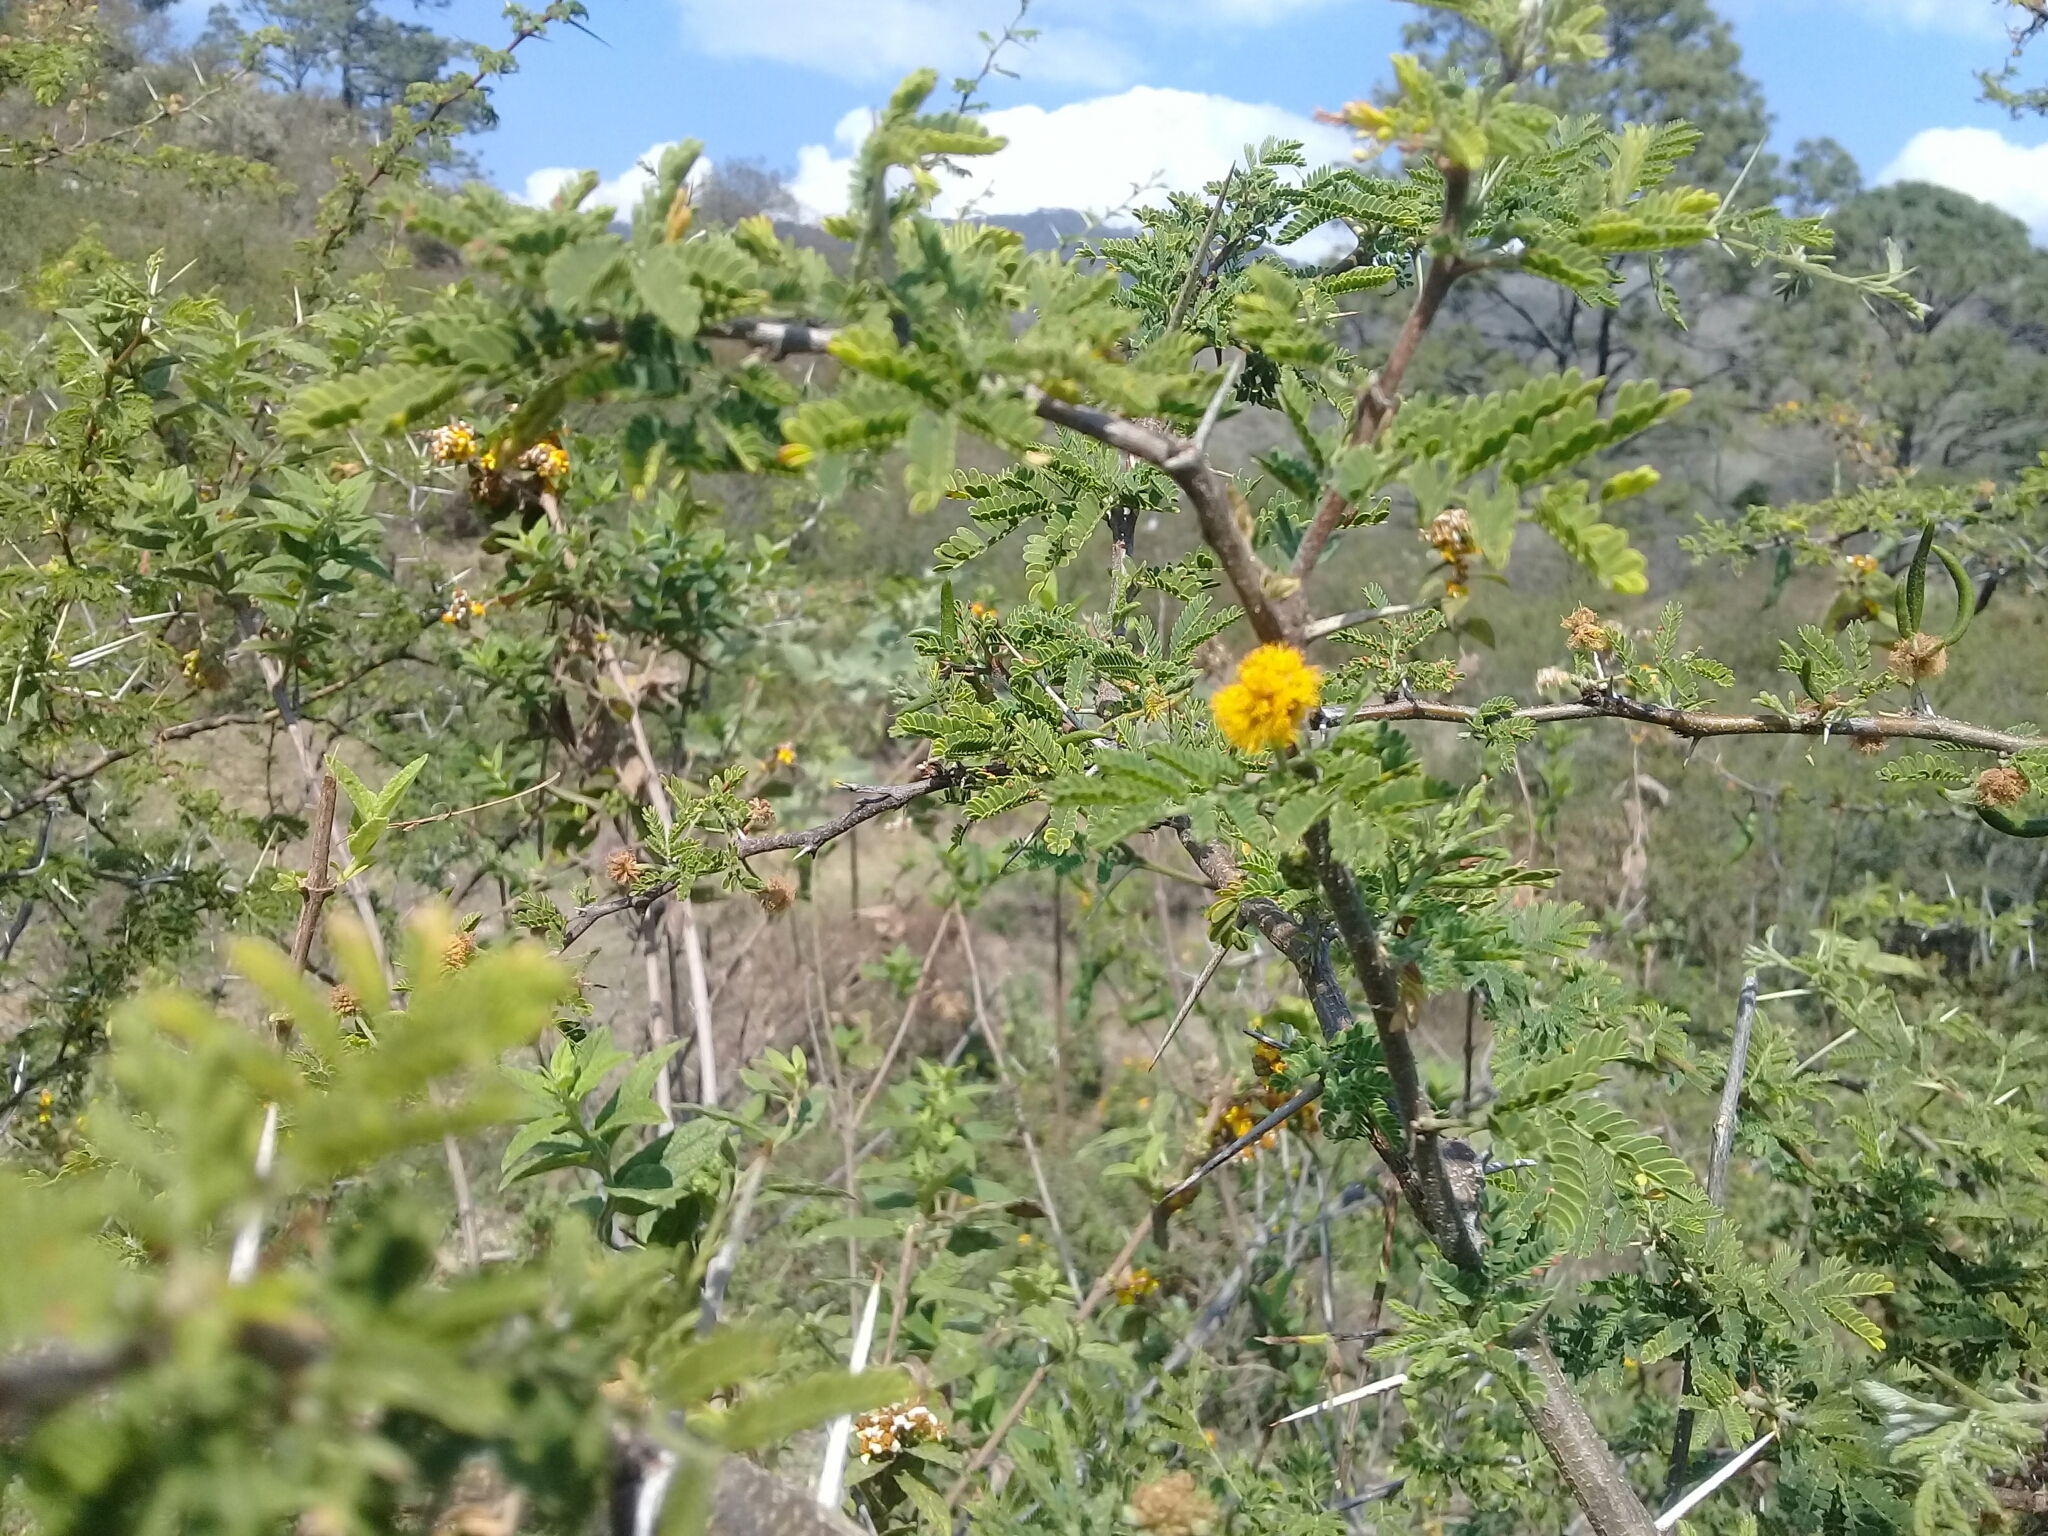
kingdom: Plantae
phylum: Tracheophyta
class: Magnoliopsida
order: Fabales
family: Fabaceae
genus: Vachellia
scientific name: Vachellia farnesiana
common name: Sweet acacia
